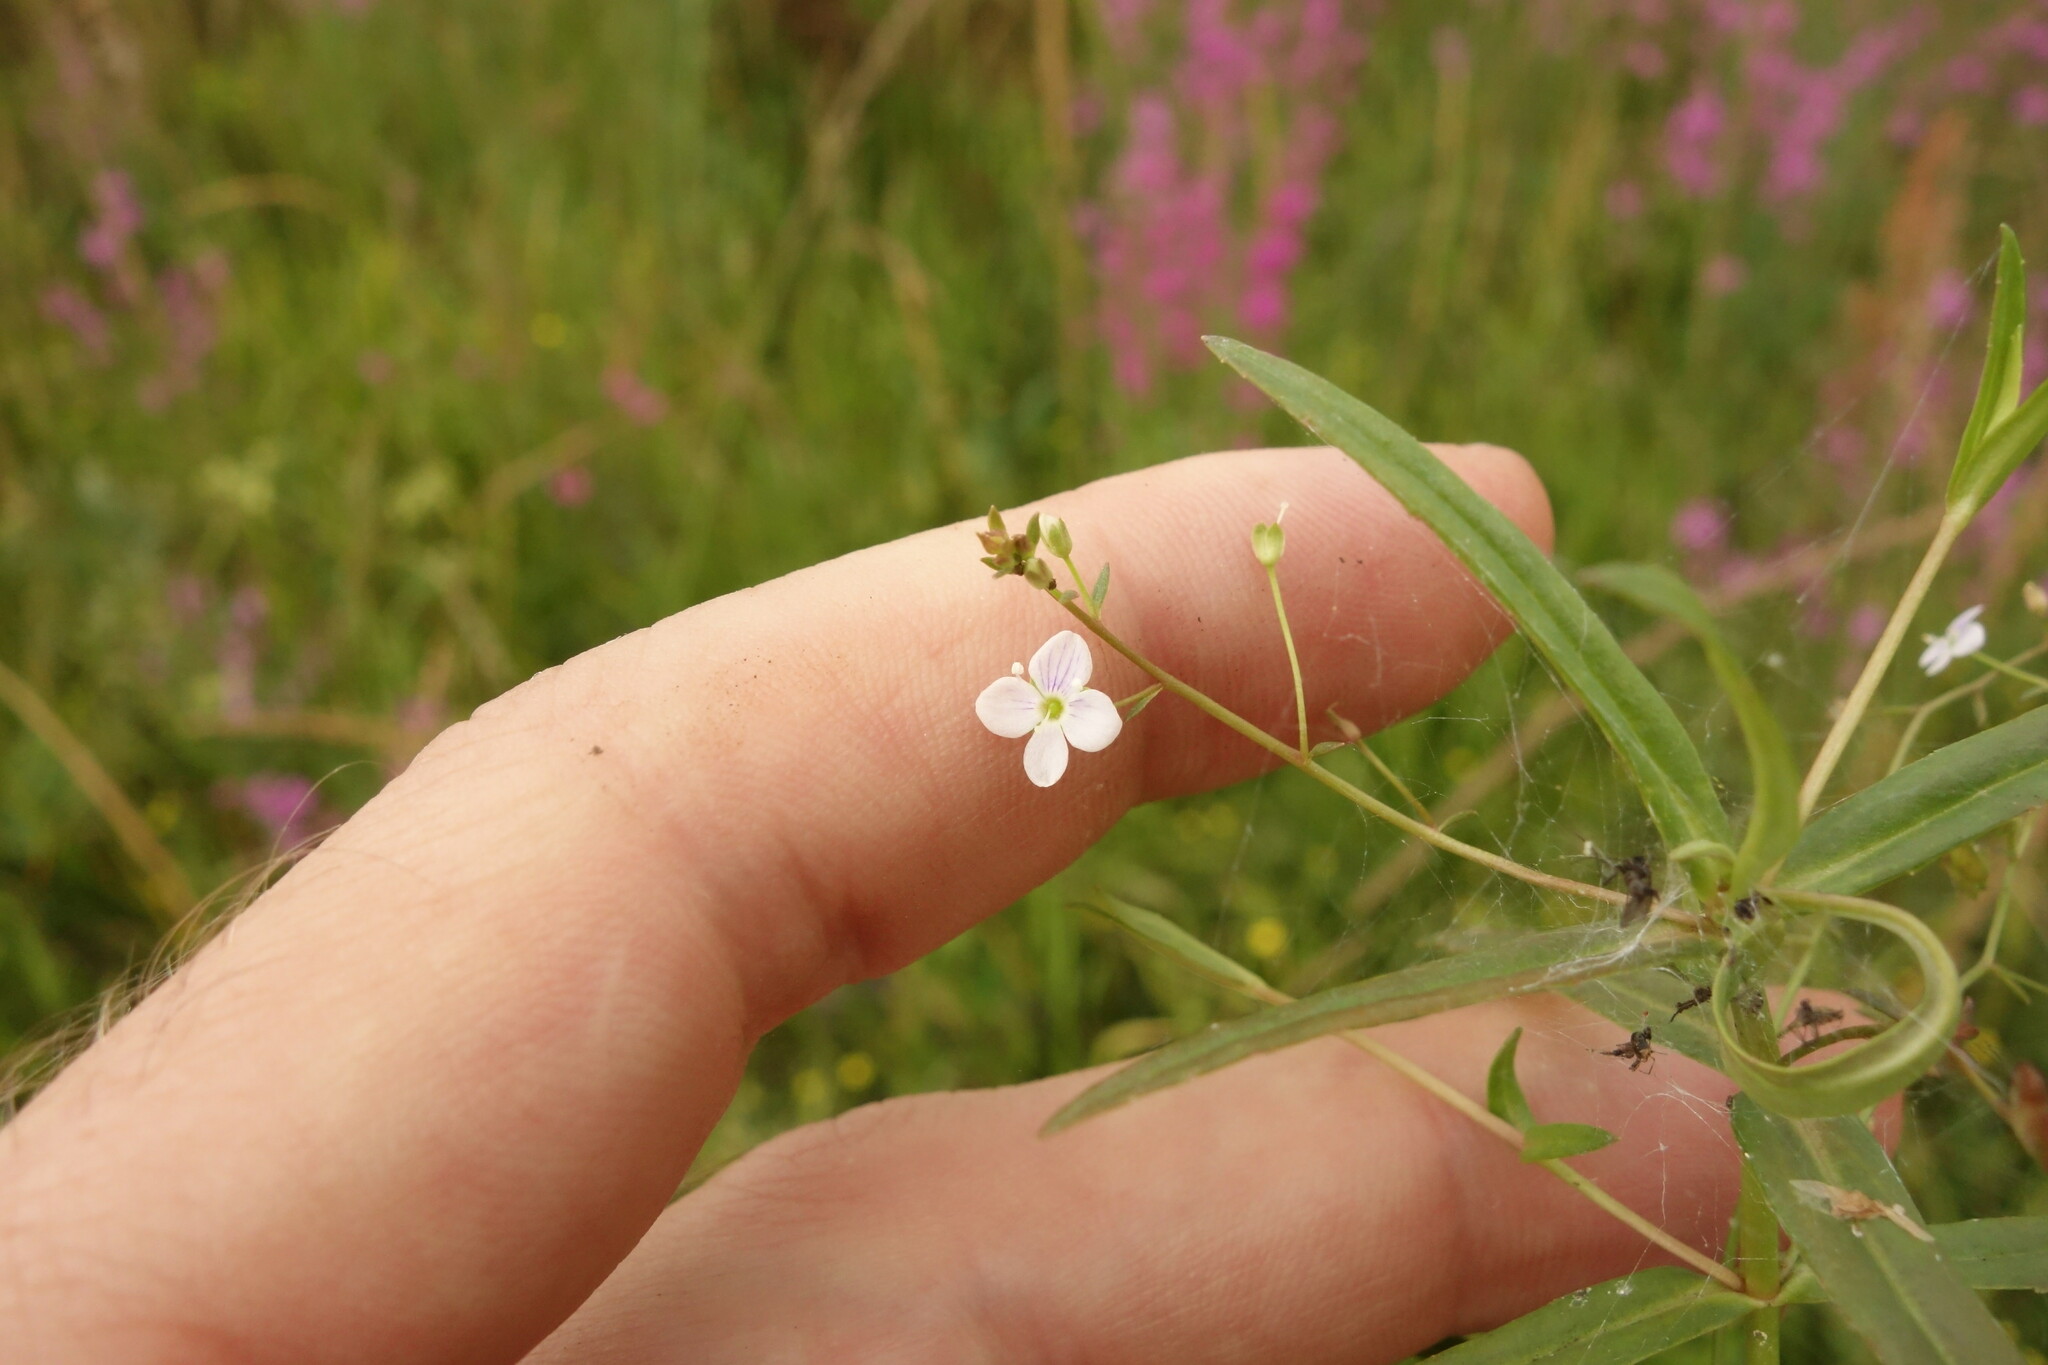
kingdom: Plantae
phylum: Tracheophyta
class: Magnoliopsida
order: Lamiales
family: Plantaginaceae
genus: Veronica
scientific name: Veronica scutellata
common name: Marsh speedwell
